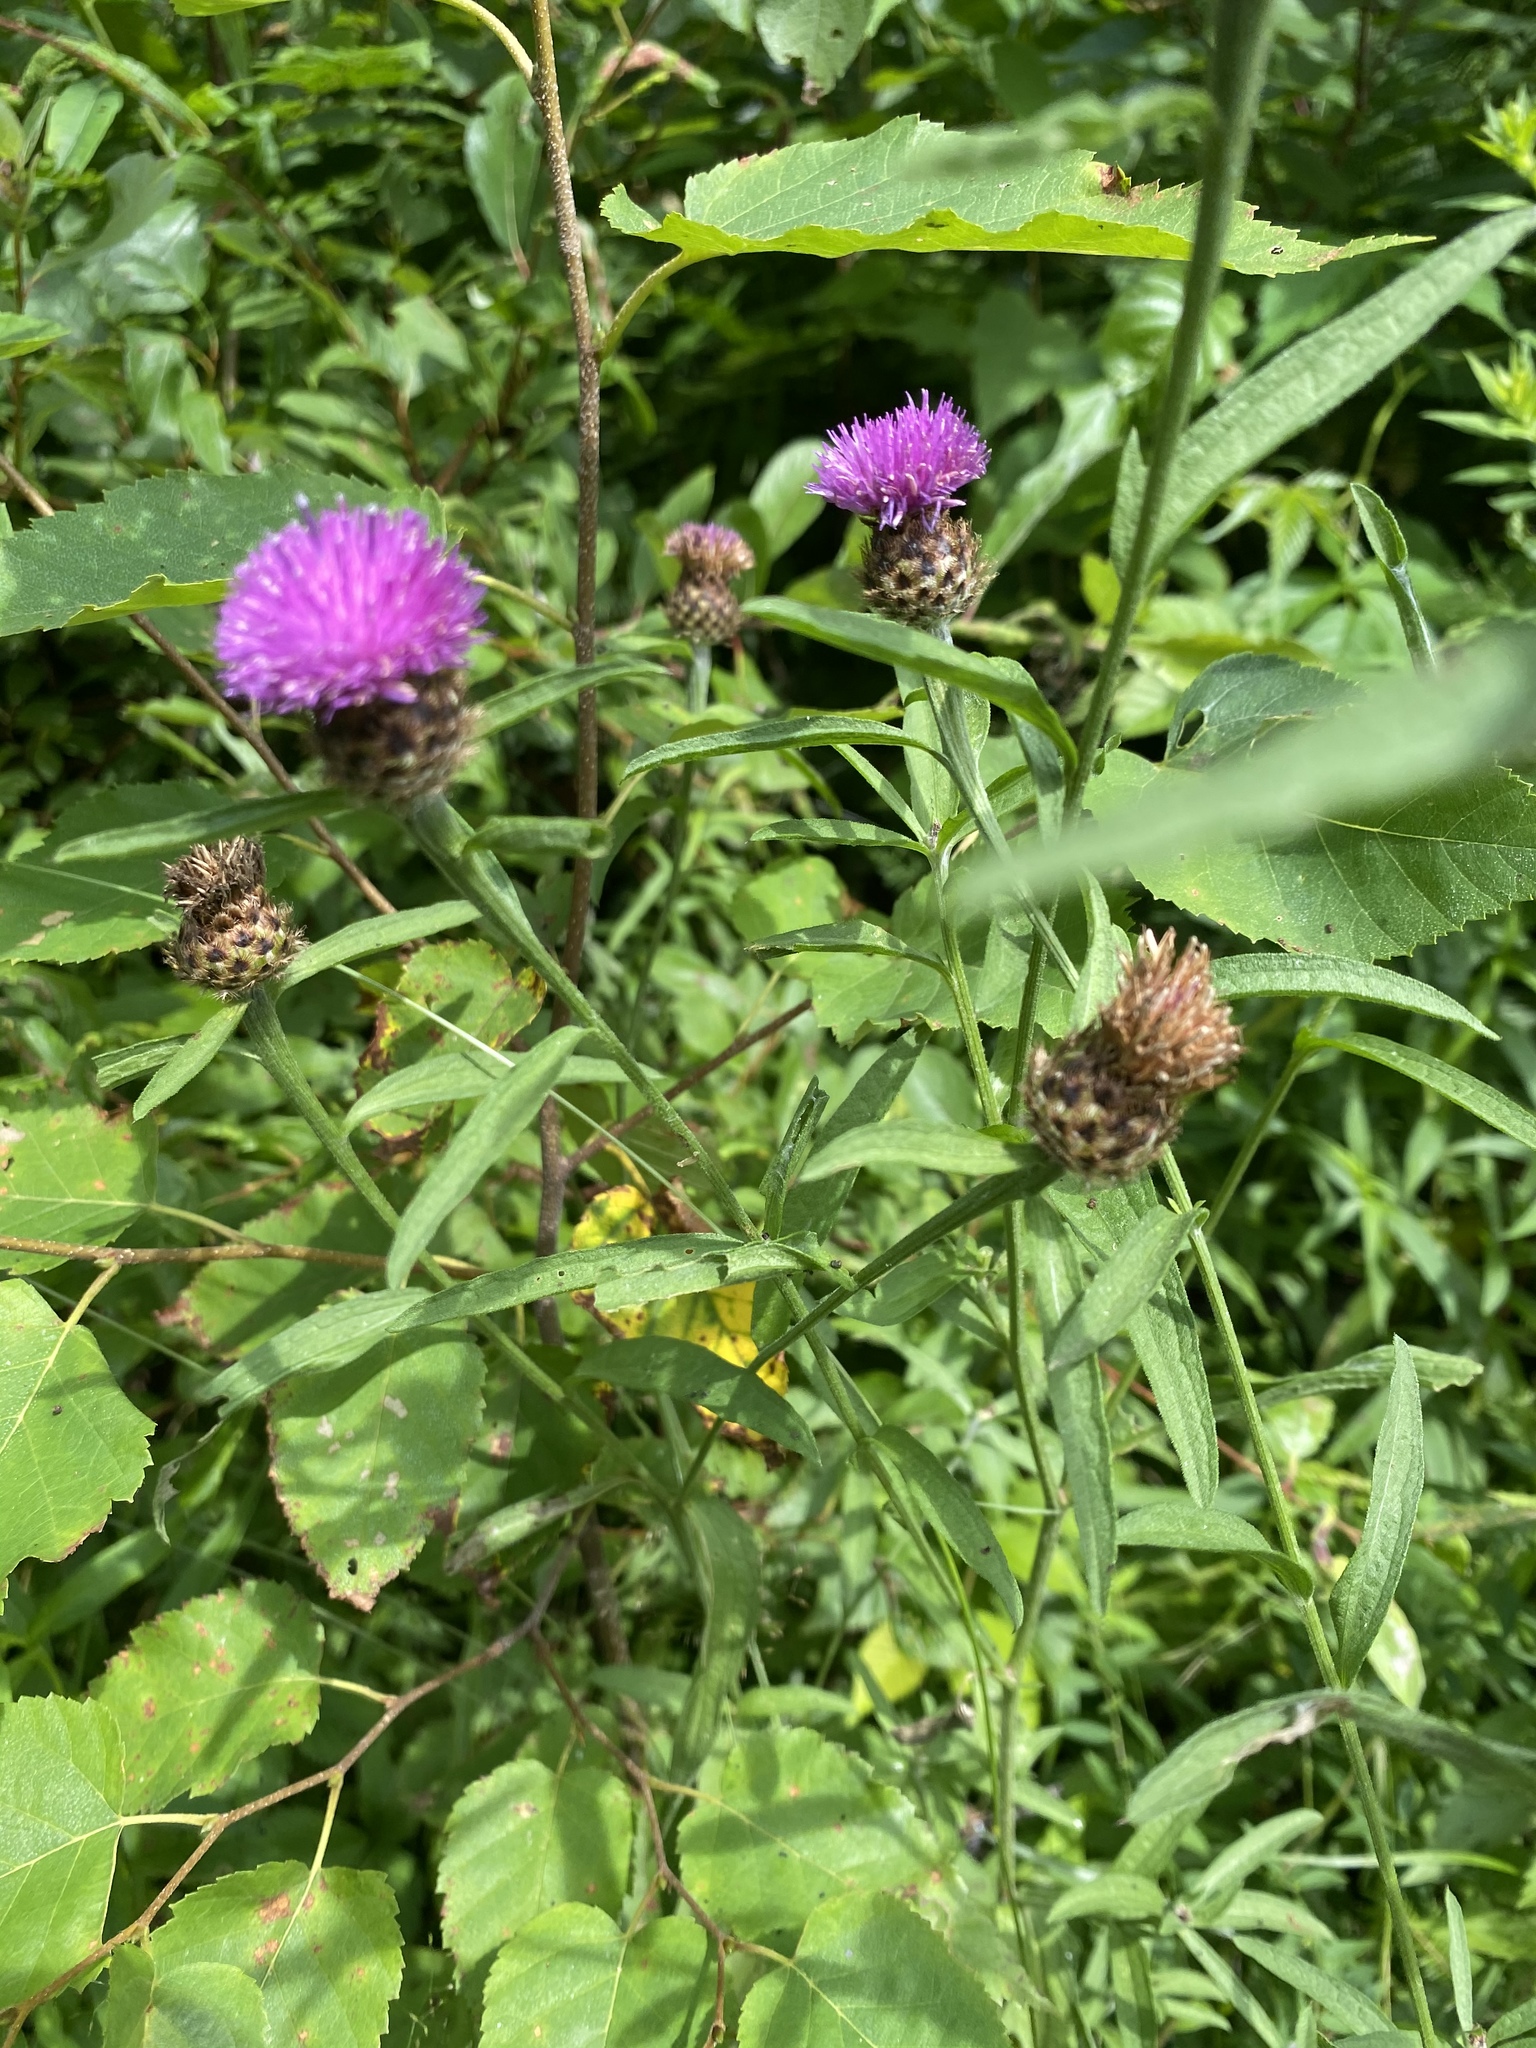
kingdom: Plantae
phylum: Tracheophyta
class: Magnoliopsida
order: Asterales
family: Asteraceae
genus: Centaurea
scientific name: Centaurea nigra
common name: Lesser knapweed
